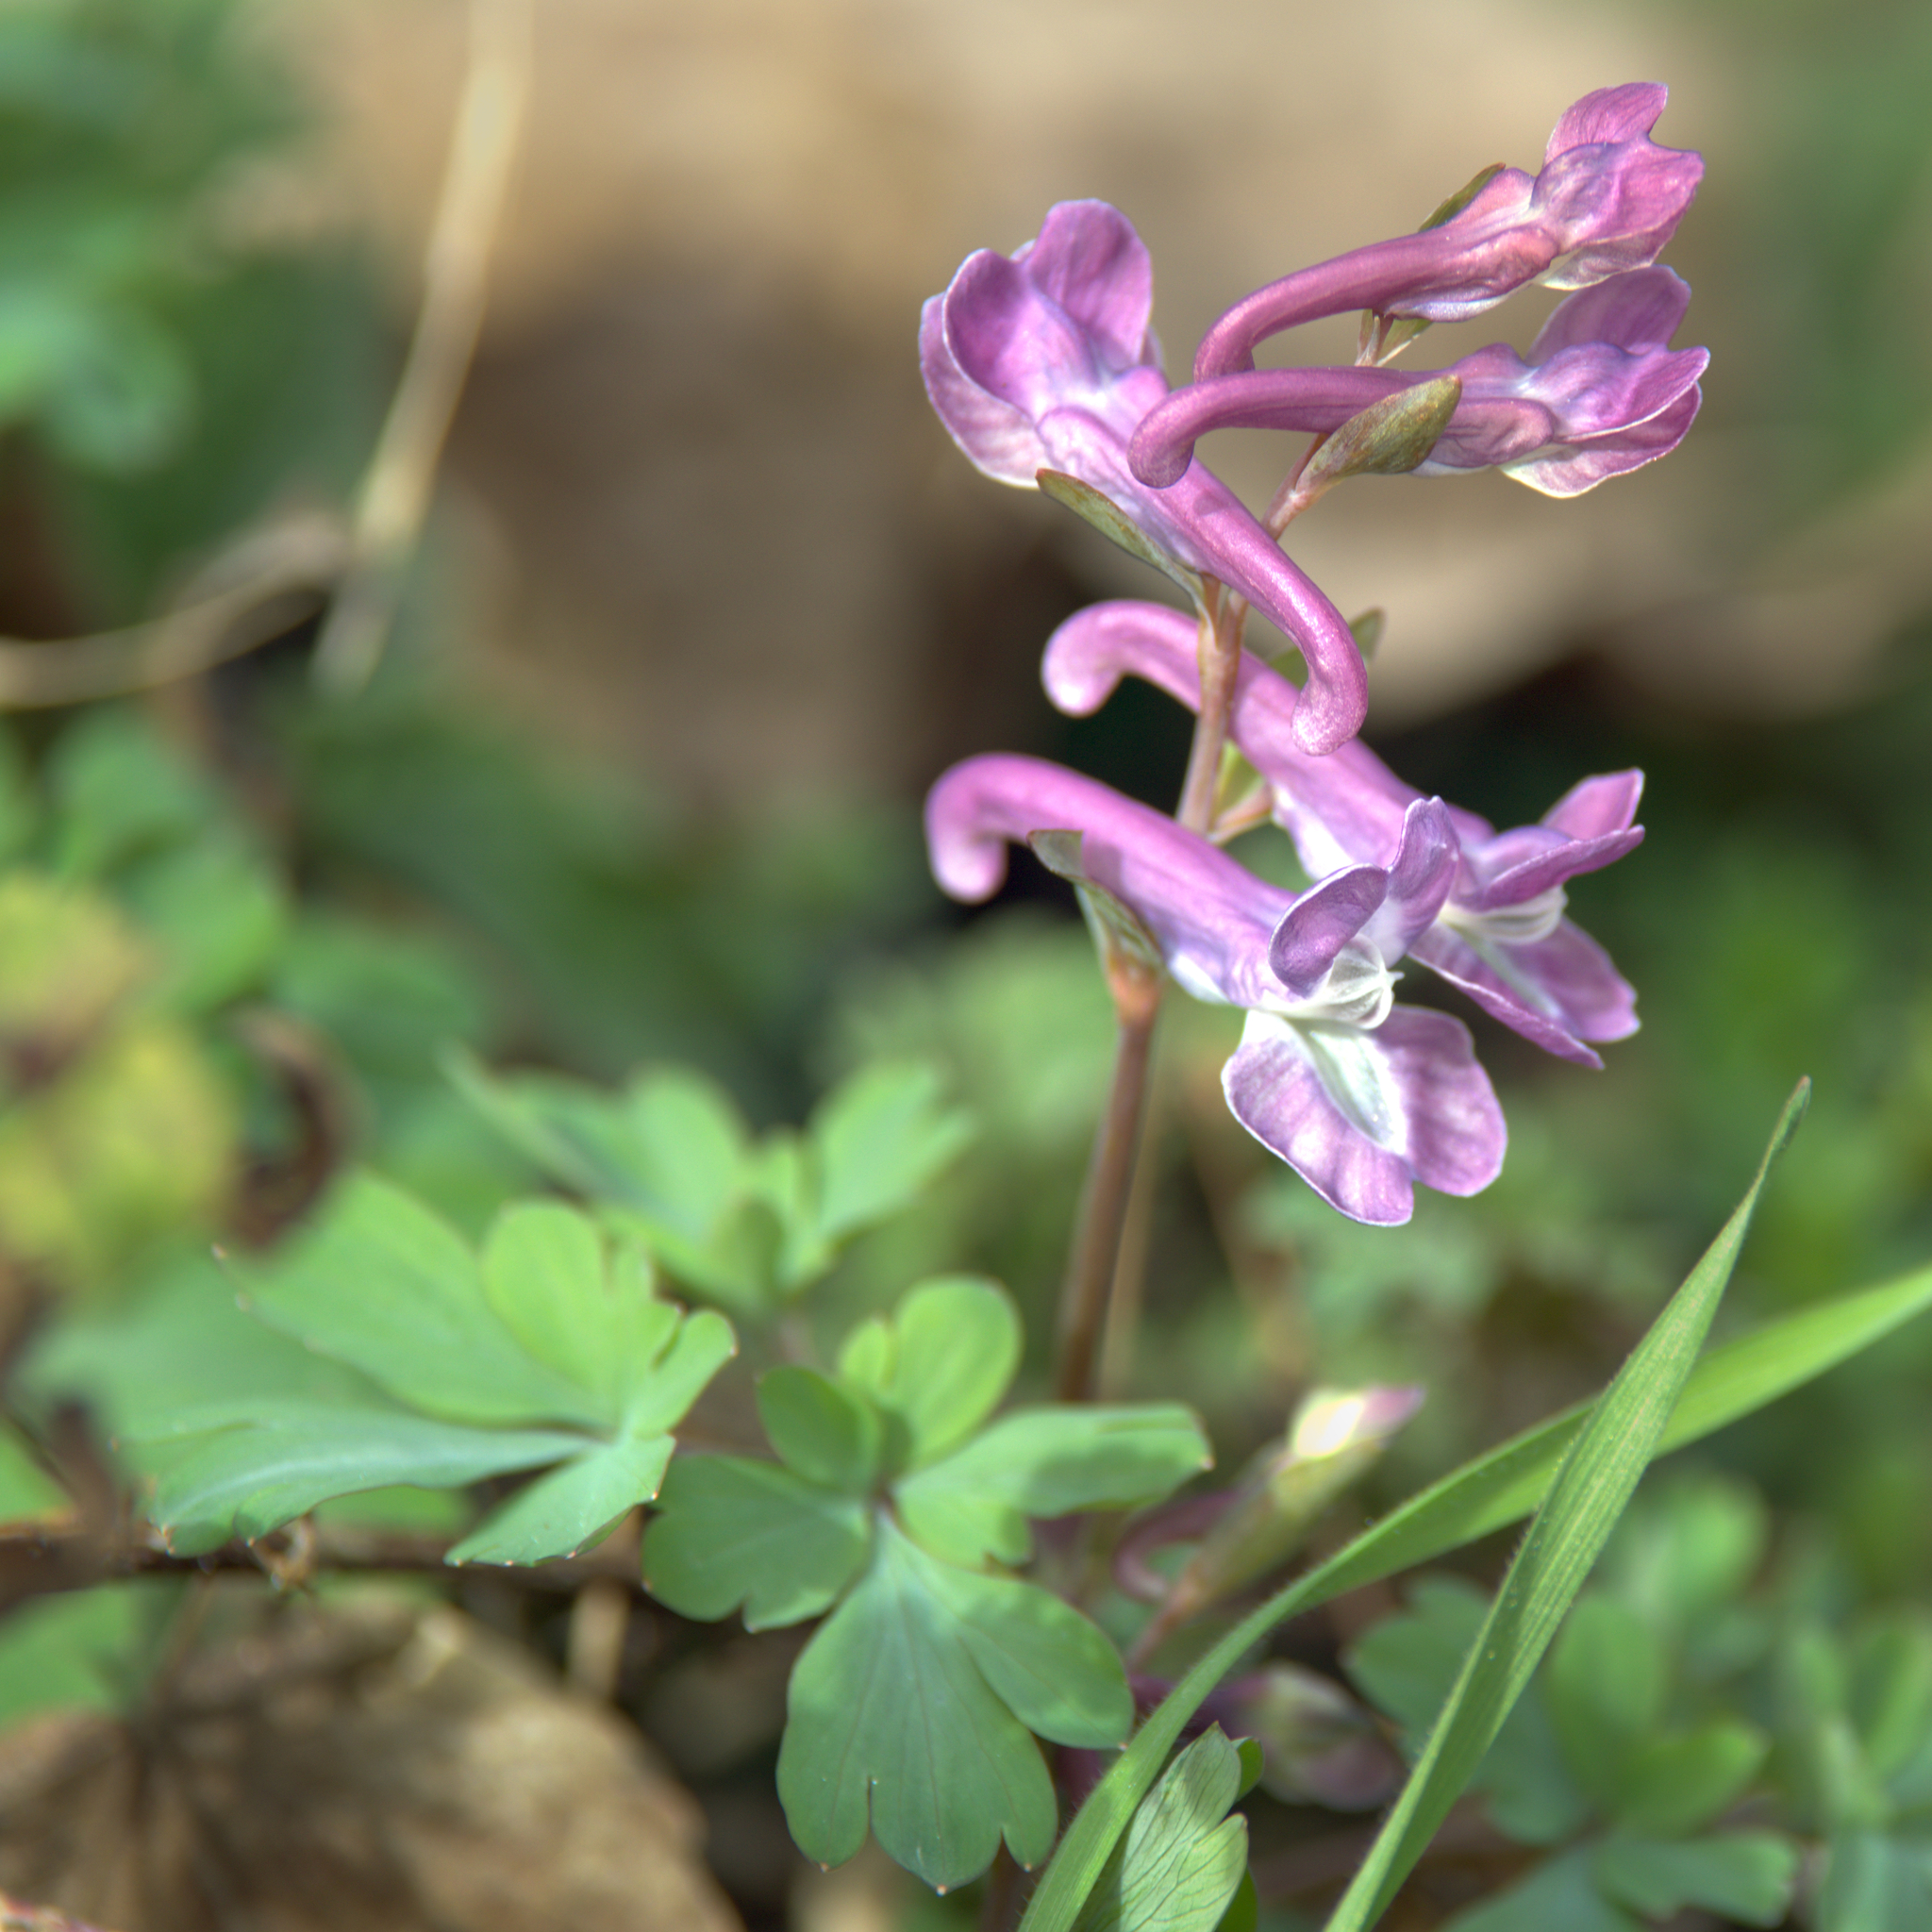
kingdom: Plantae
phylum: Tracheophyta
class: Magnoliopsida
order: Ranunculales
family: Papaveraceae
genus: Corydalis
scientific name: Corydalis cava
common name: Hollowroot
